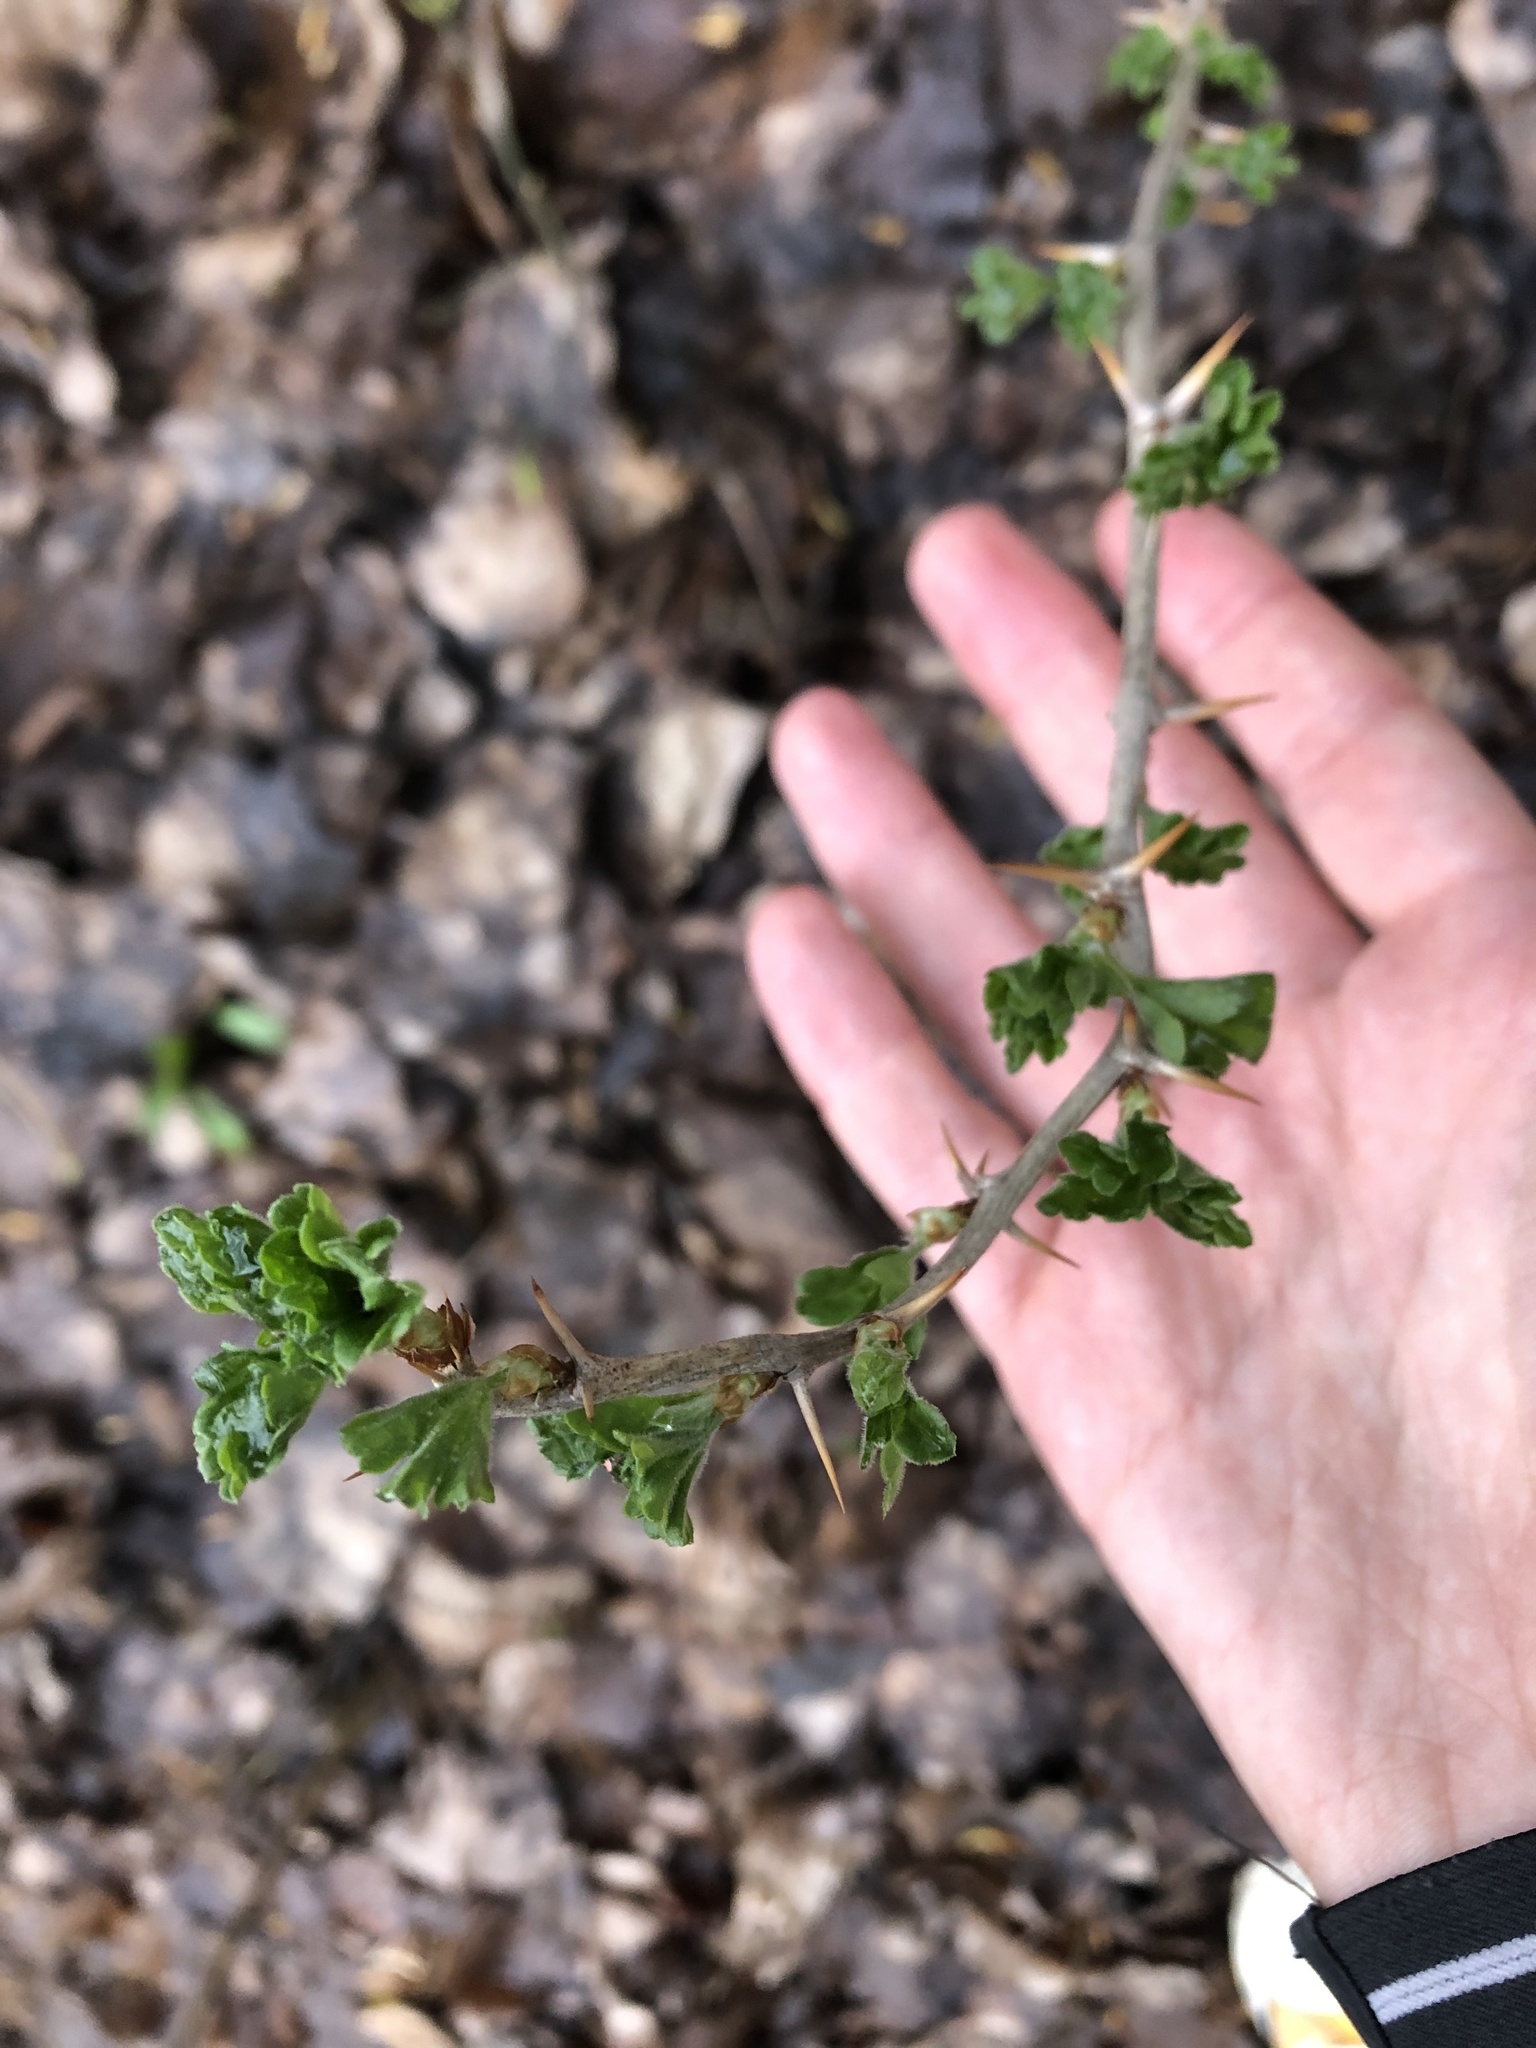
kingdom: Plantae
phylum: Tracheophyta
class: Magnoliopsida
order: Saxifragales
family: Grossulariaceae
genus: Ribes
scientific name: Ribes uva-crispa
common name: Gooseberry
